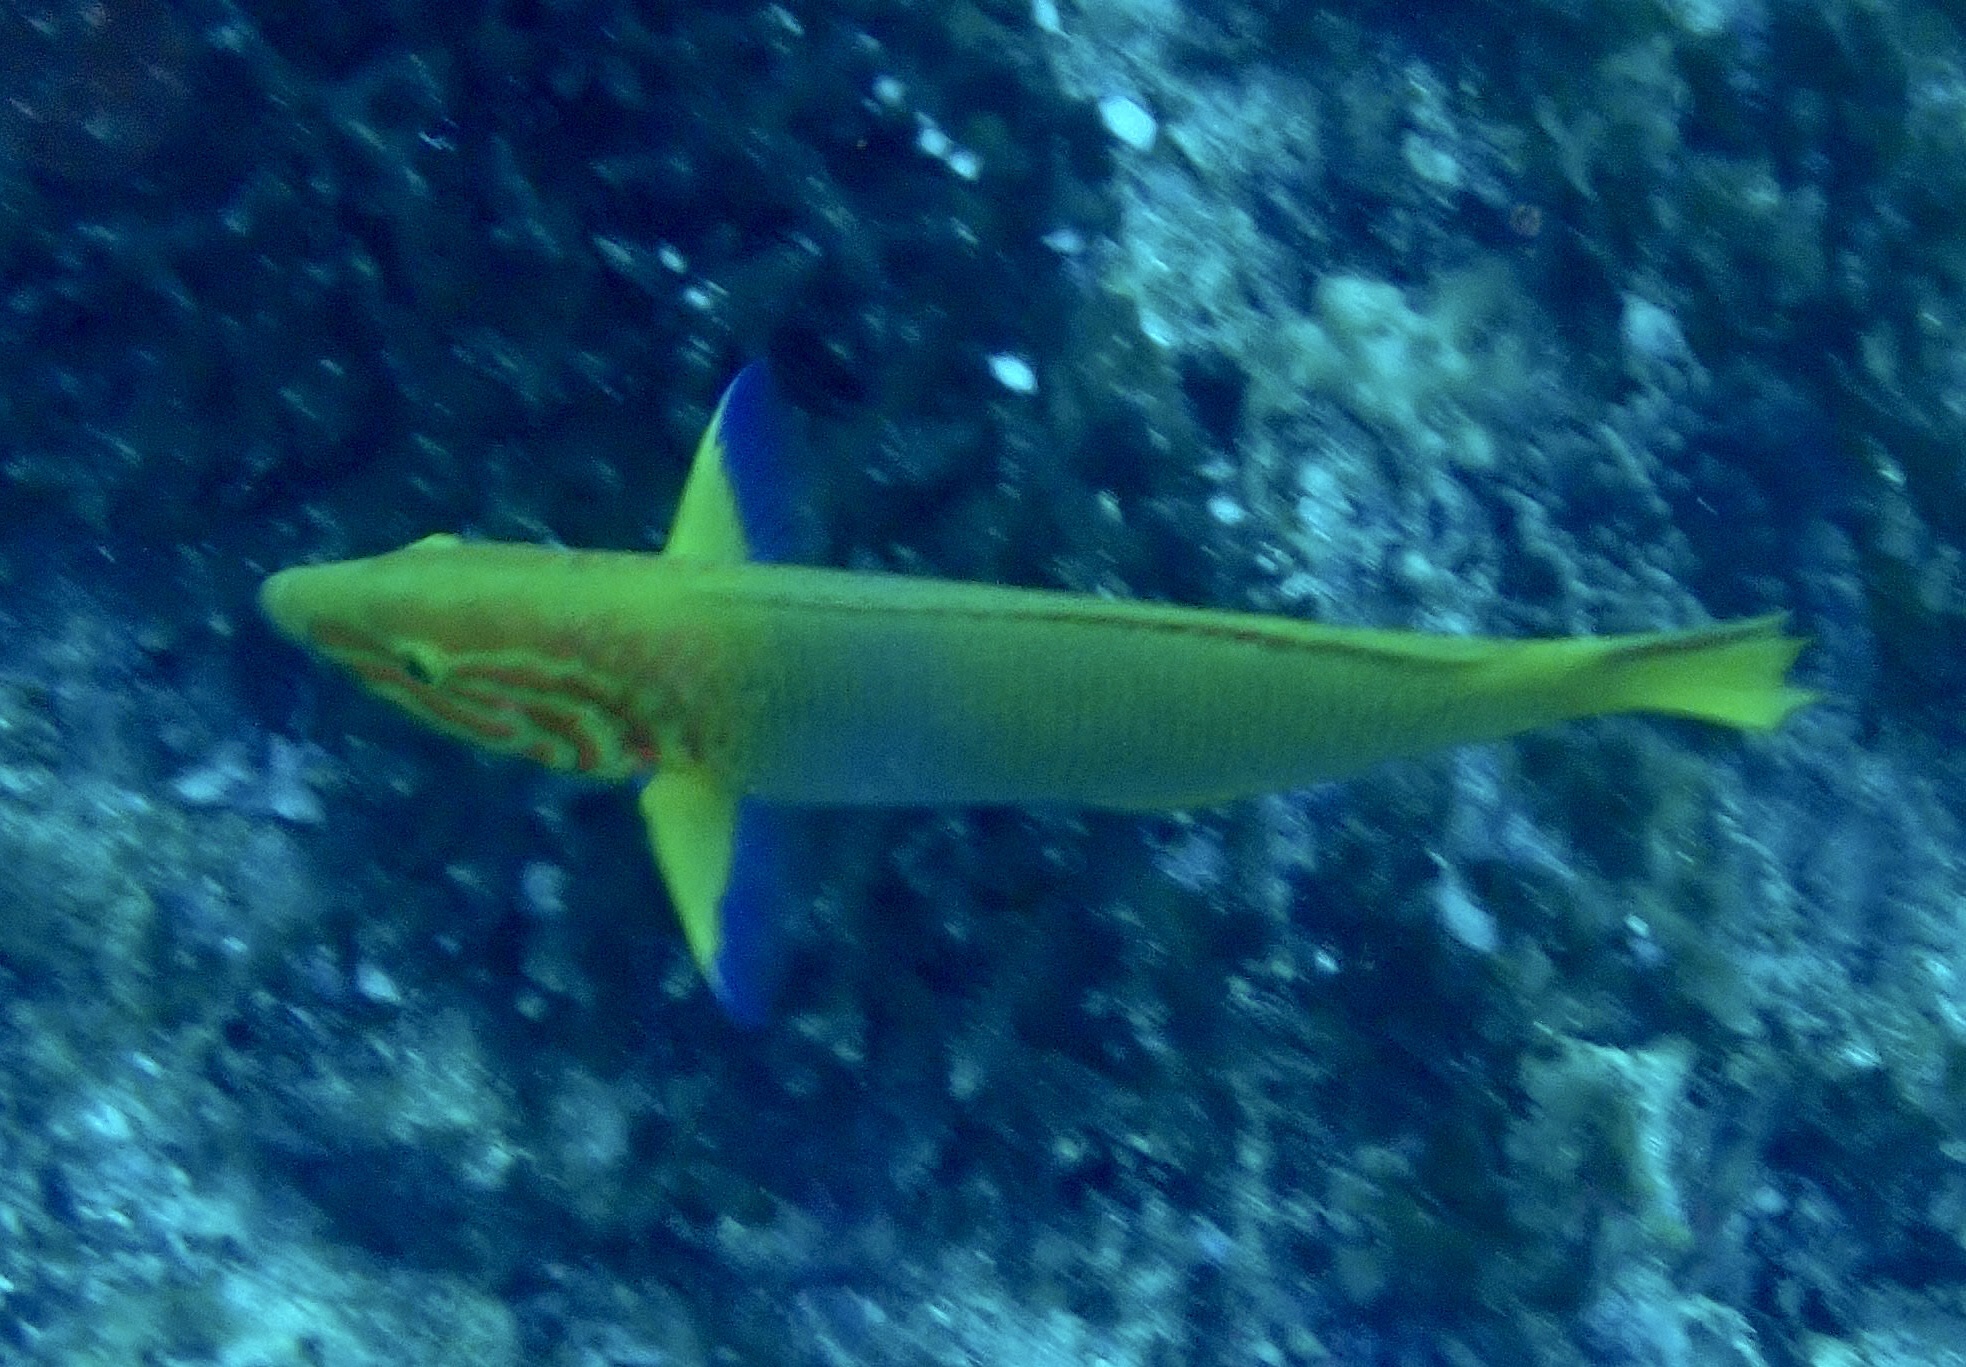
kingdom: Animalia
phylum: Chordata
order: Perciformes
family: Labridae
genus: Thalassoma
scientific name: Thalassoma lutescens
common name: Green moon wrasse
